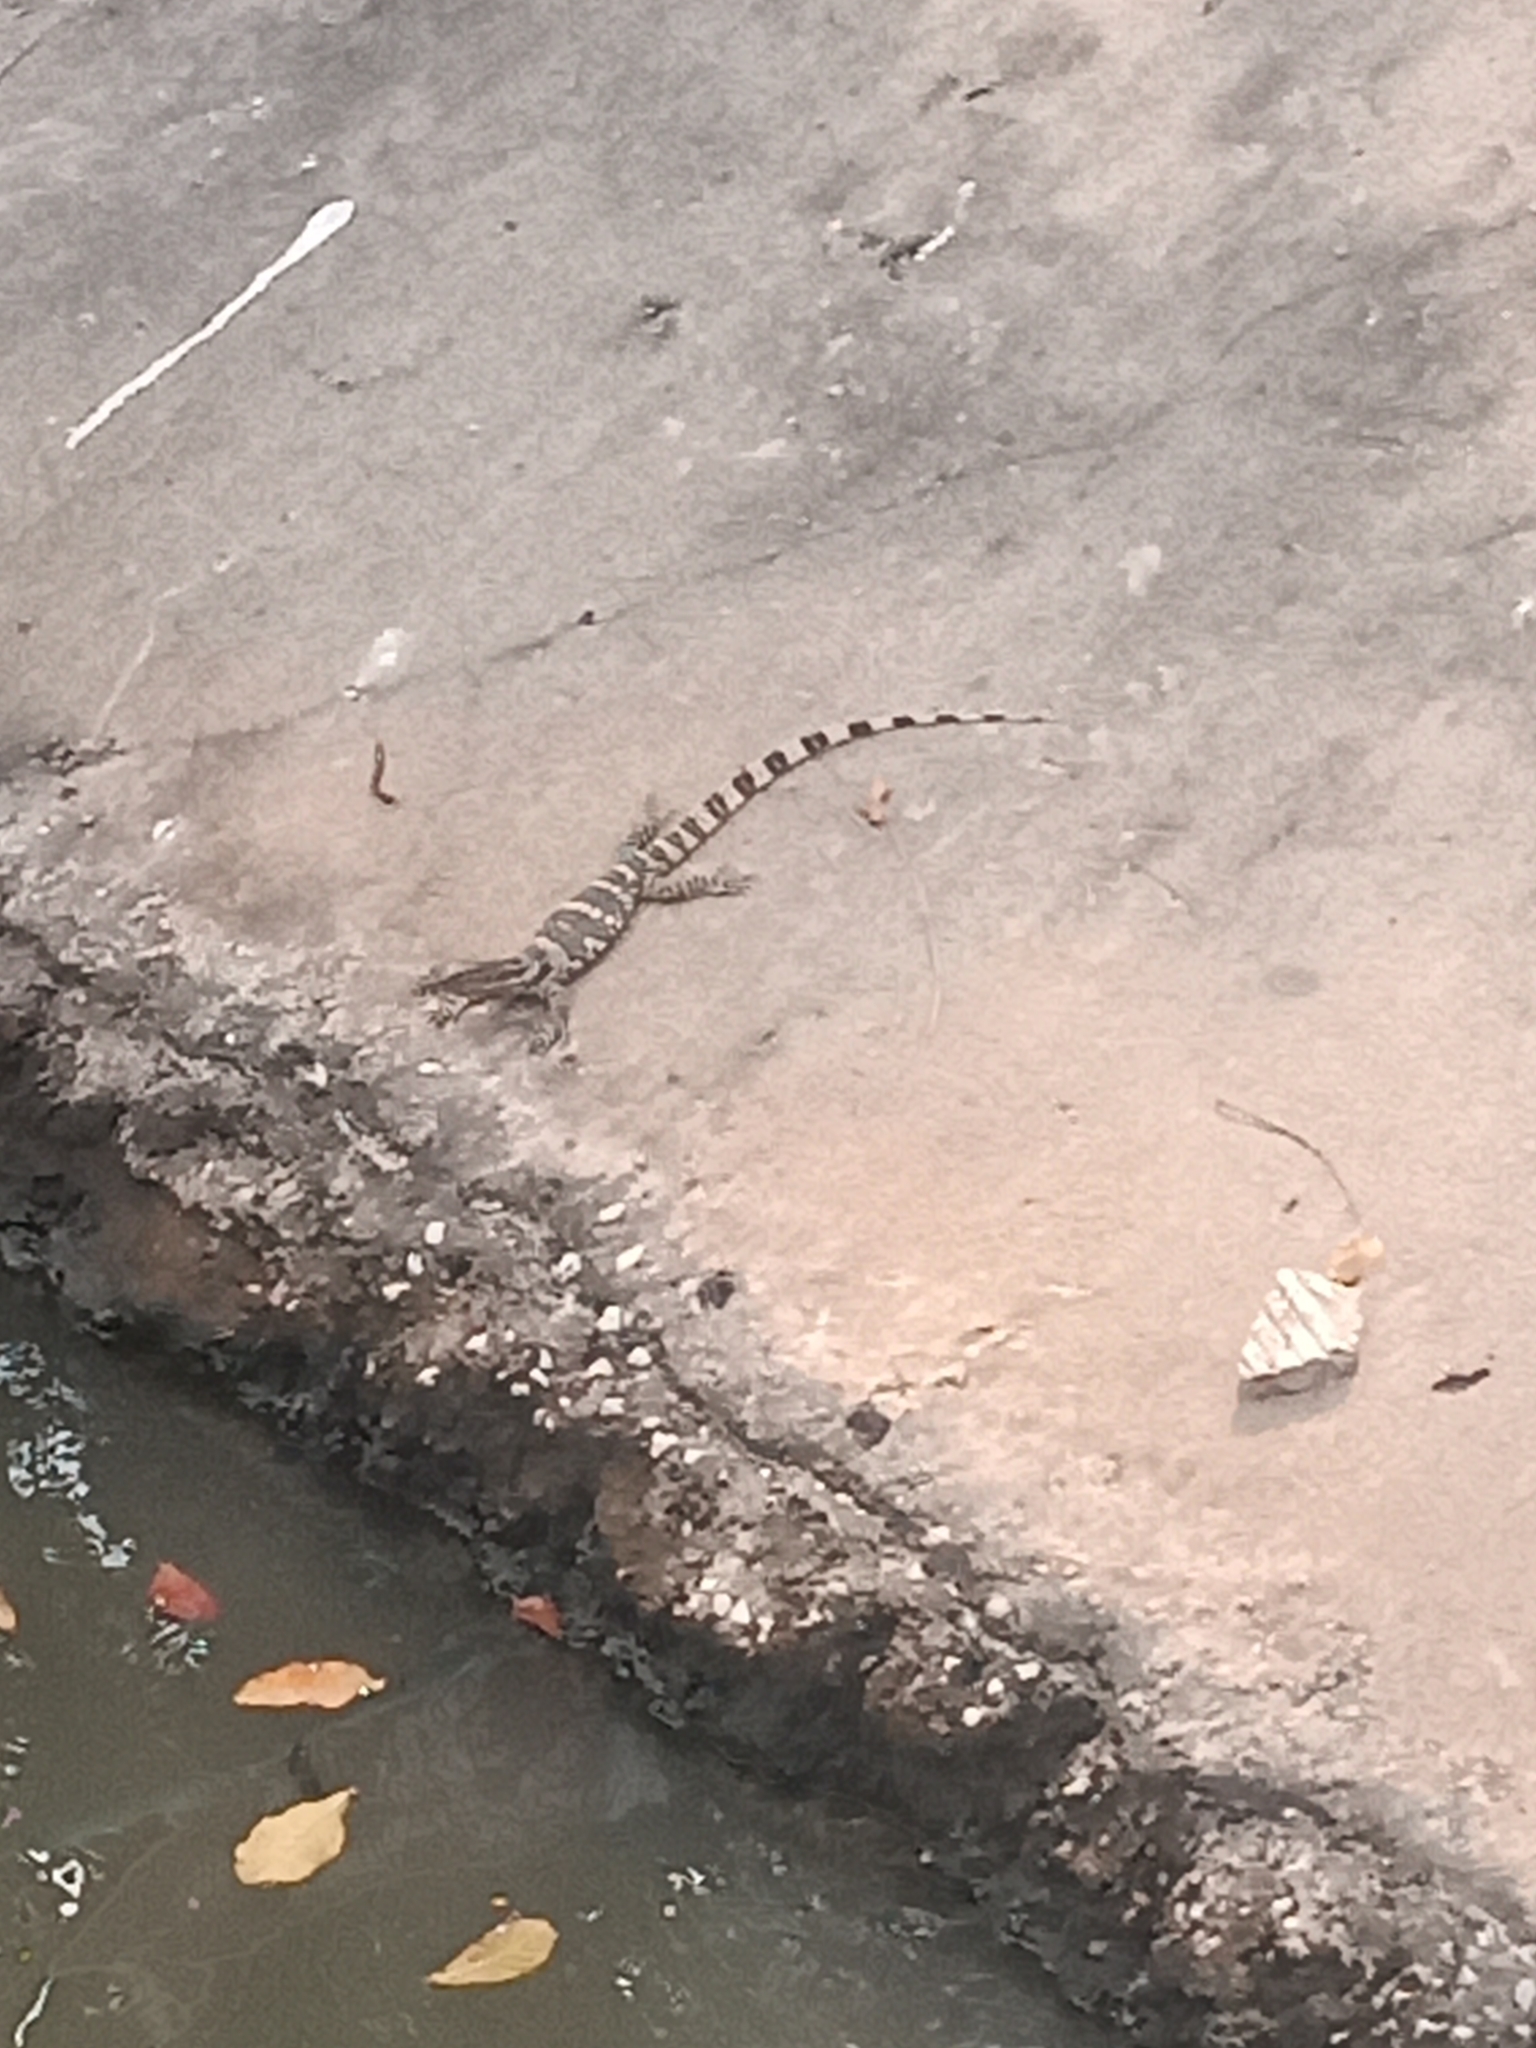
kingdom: Animalia
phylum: Chordata
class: Squamata
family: Varanidae
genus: Varanus
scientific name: Varanus salvator
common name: Common water monitor
